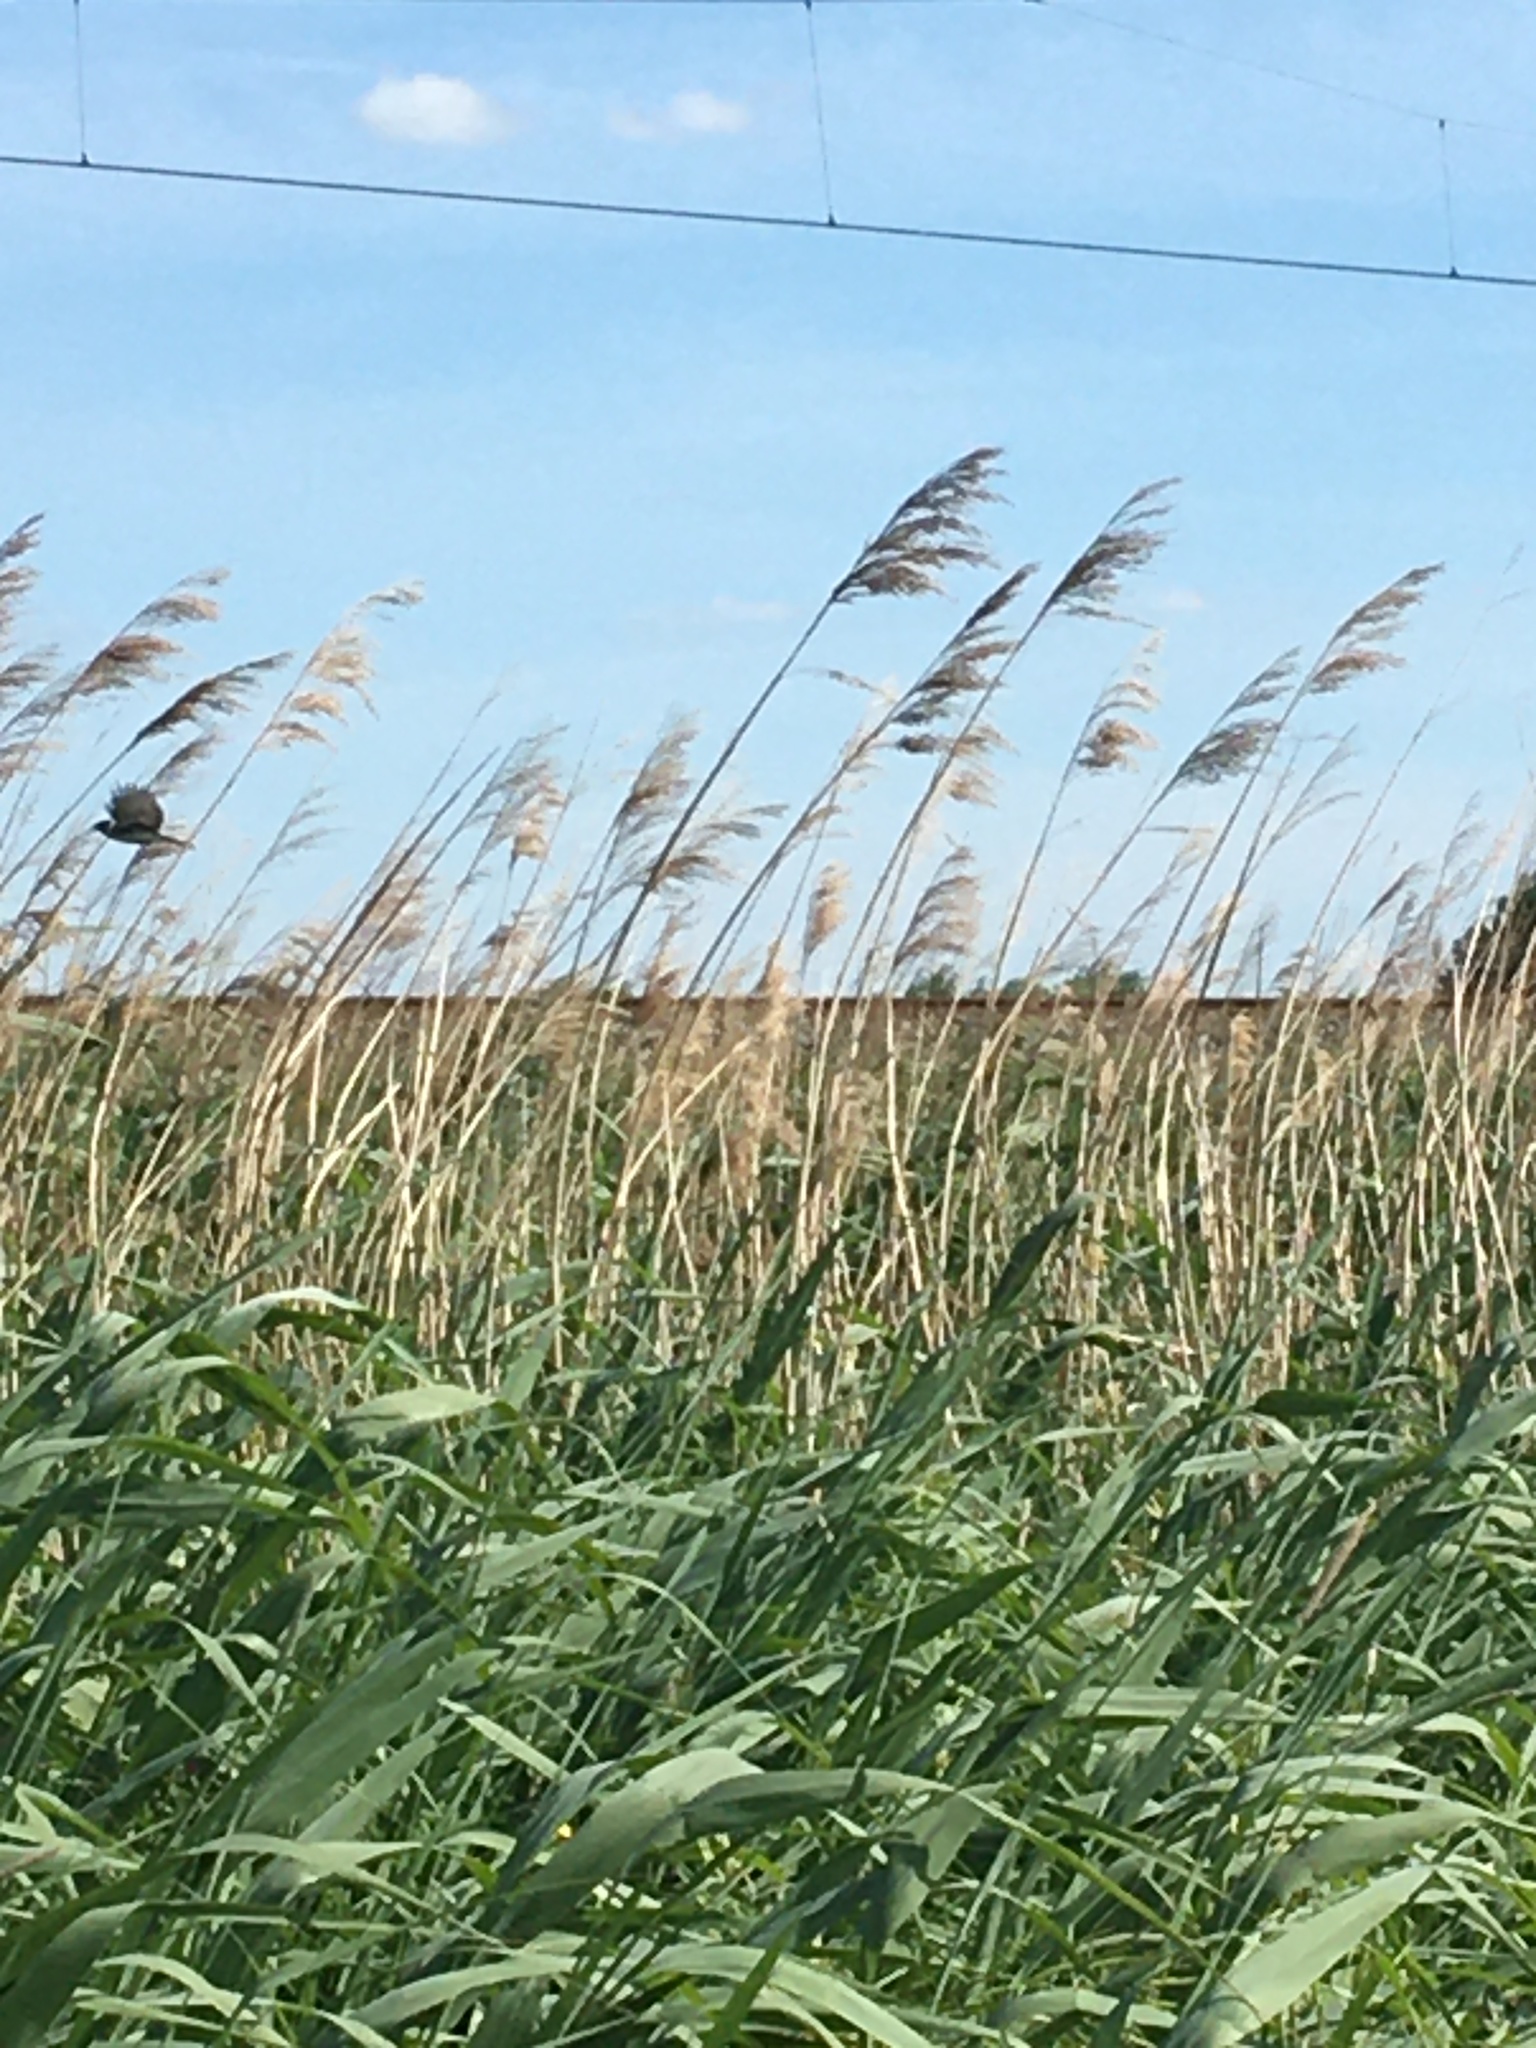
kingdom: Animalia
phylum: Chordata
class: Aves
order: Passeriformes
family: Emberizidae
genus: Emberiza
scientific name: Emberiza schoeniclus
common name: Reed bunting
